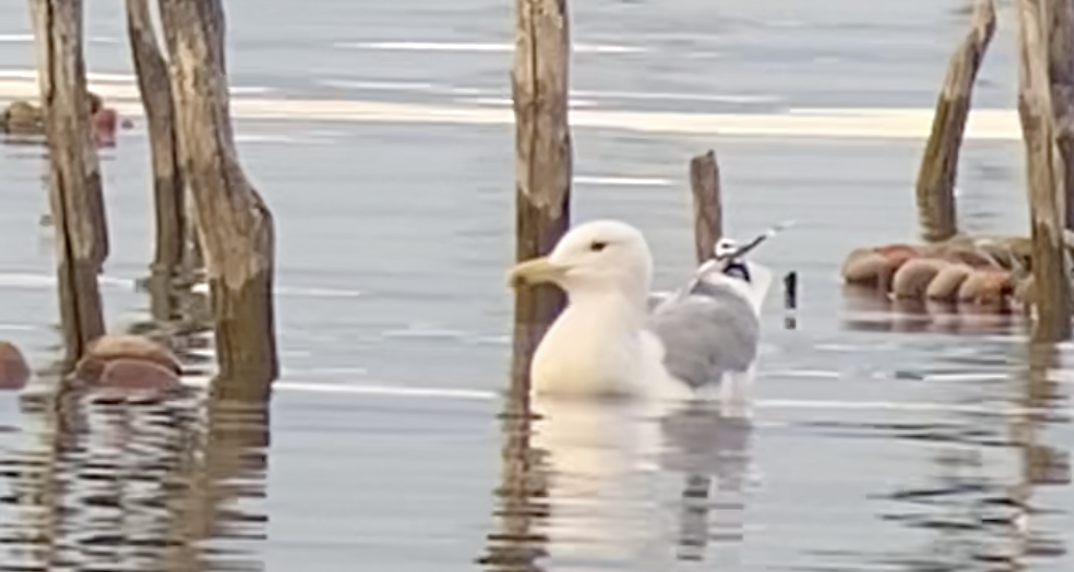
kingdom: Animalia
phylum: Chordata
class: Aves
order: Charadriiformes
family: Laridae
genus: Larus
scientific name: Larus cachinnans
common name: Caspian gull
